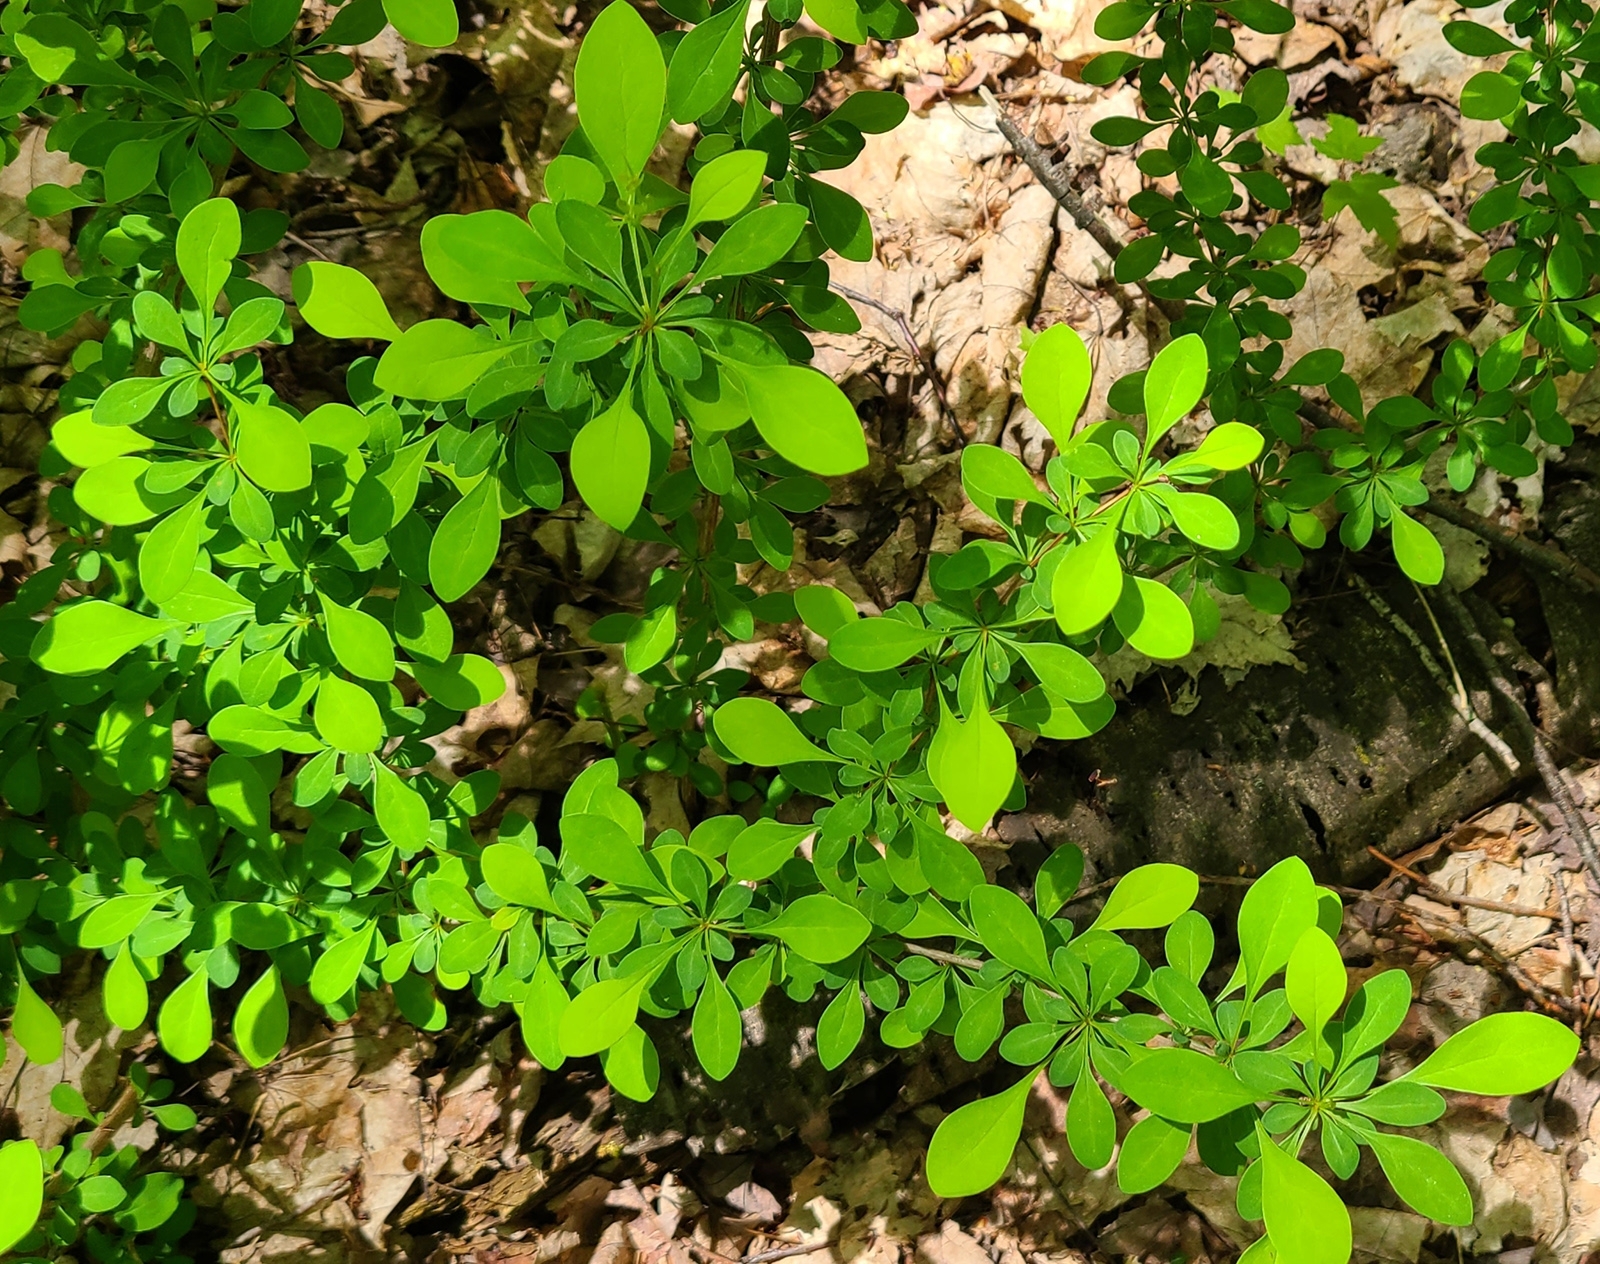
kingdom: Plantae
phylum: Tracheophyta
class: Magnoliopsida
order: Ranunculales
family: Berberidaceae
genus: Berberis
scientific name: Berberis thunbergii
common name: Japanese barberry
